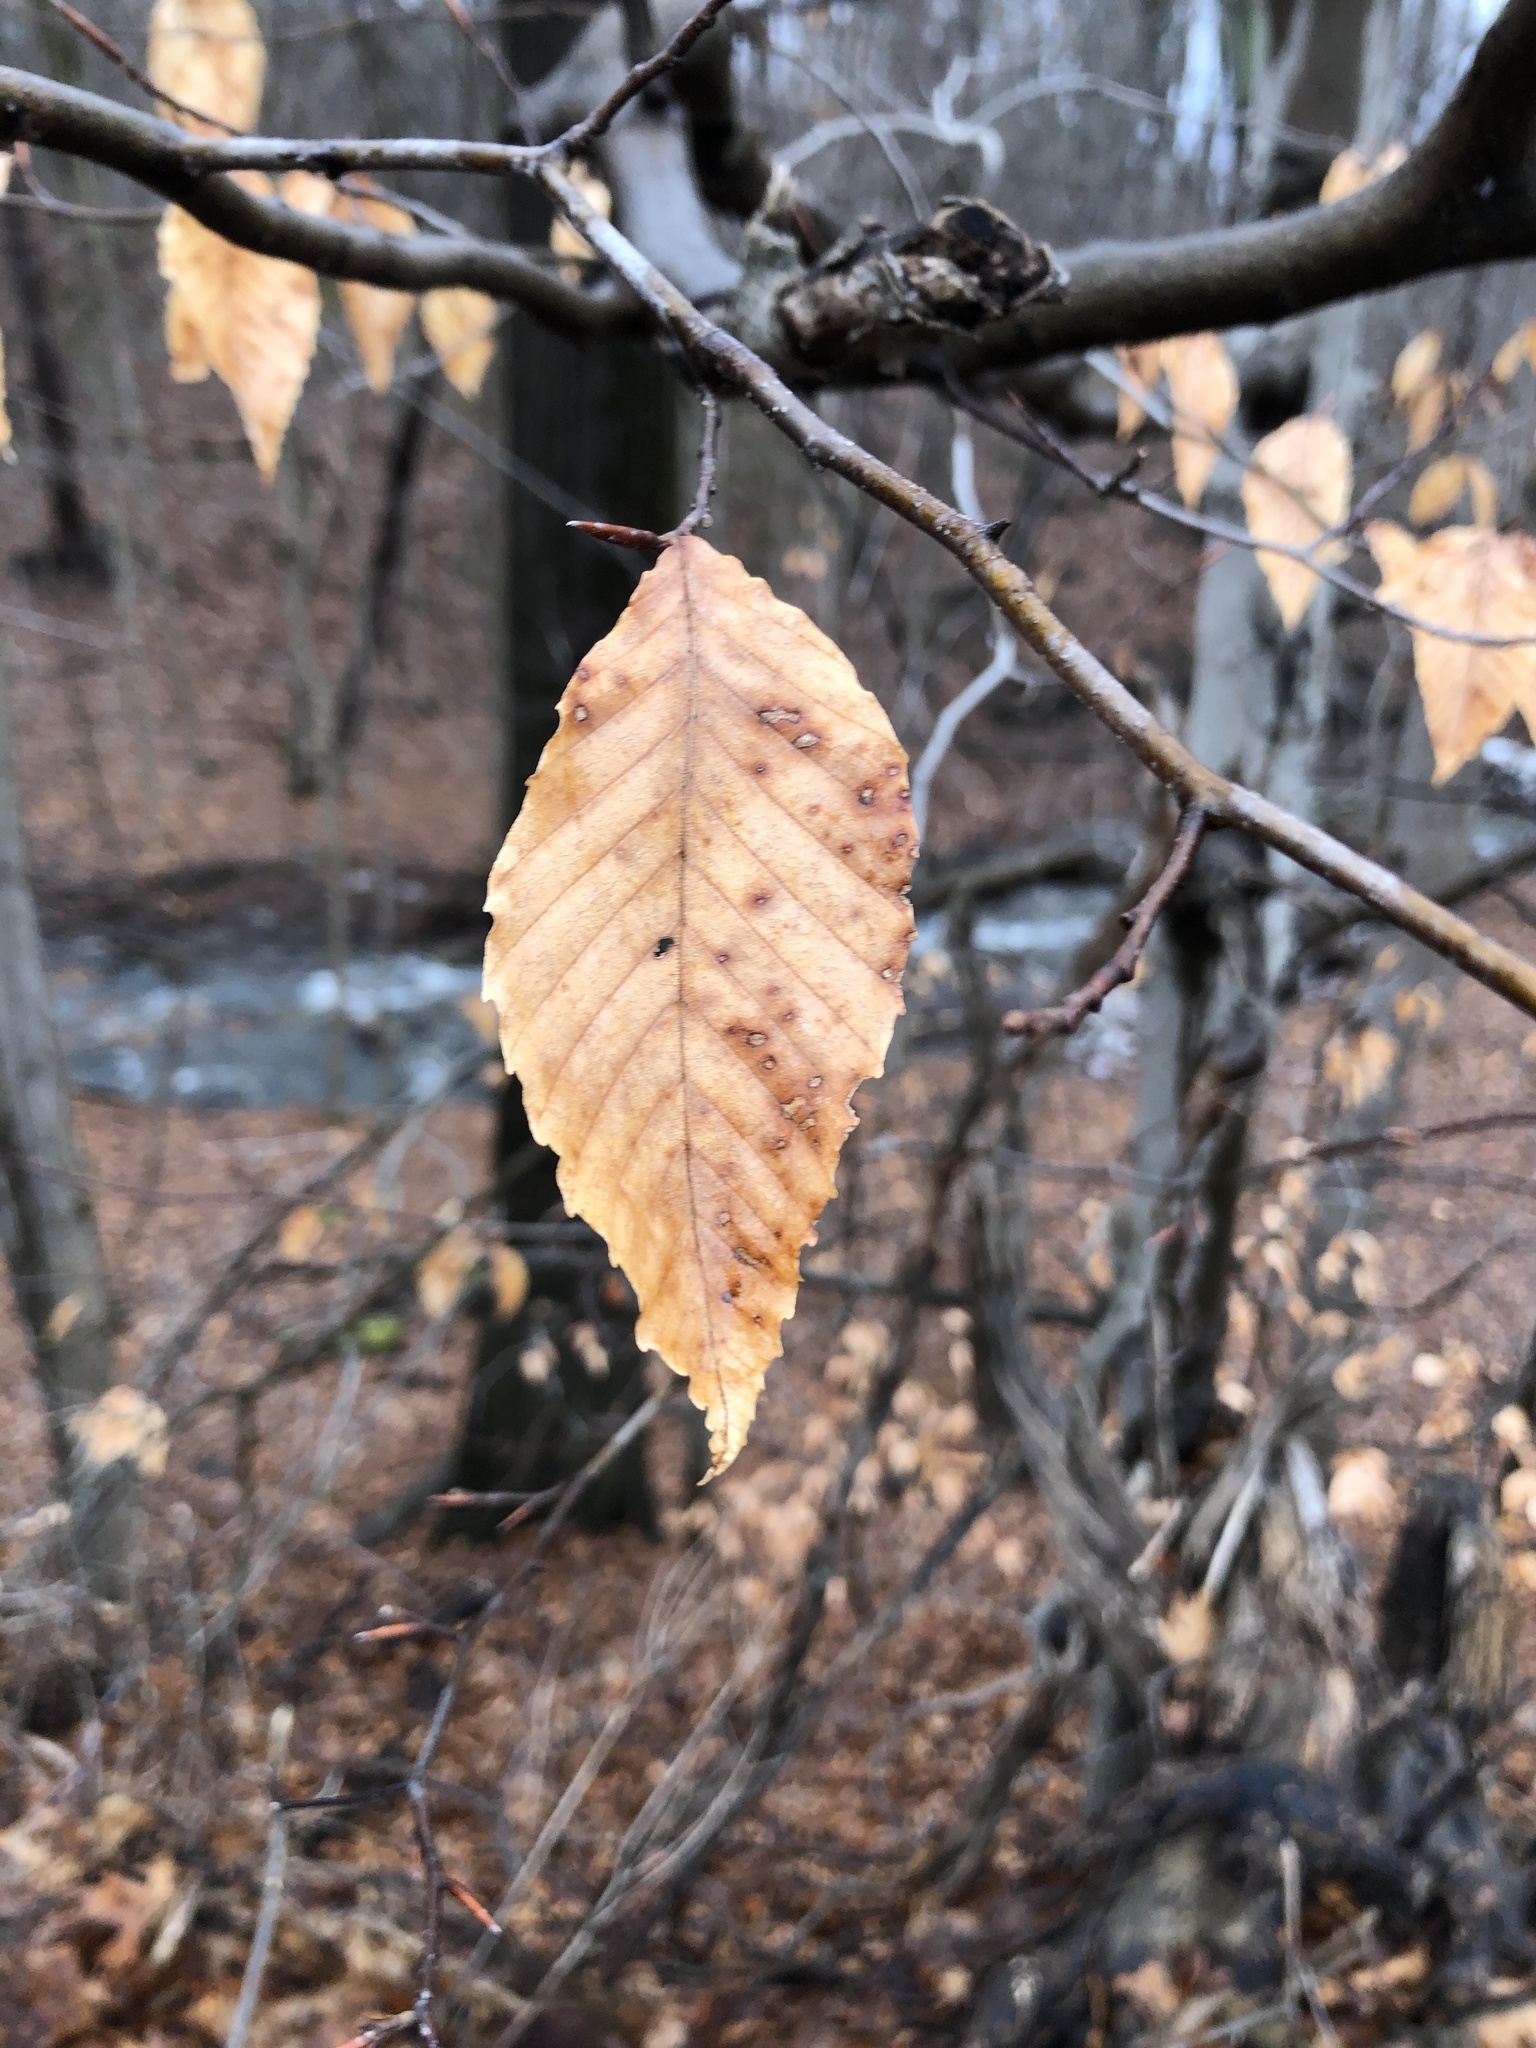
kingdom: Plantae
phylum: Tracheophyta
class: Magnoliopsida
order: Fagales
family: Fagaceae
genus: Fagus
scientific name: Fagus grandifolia
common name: American beech
